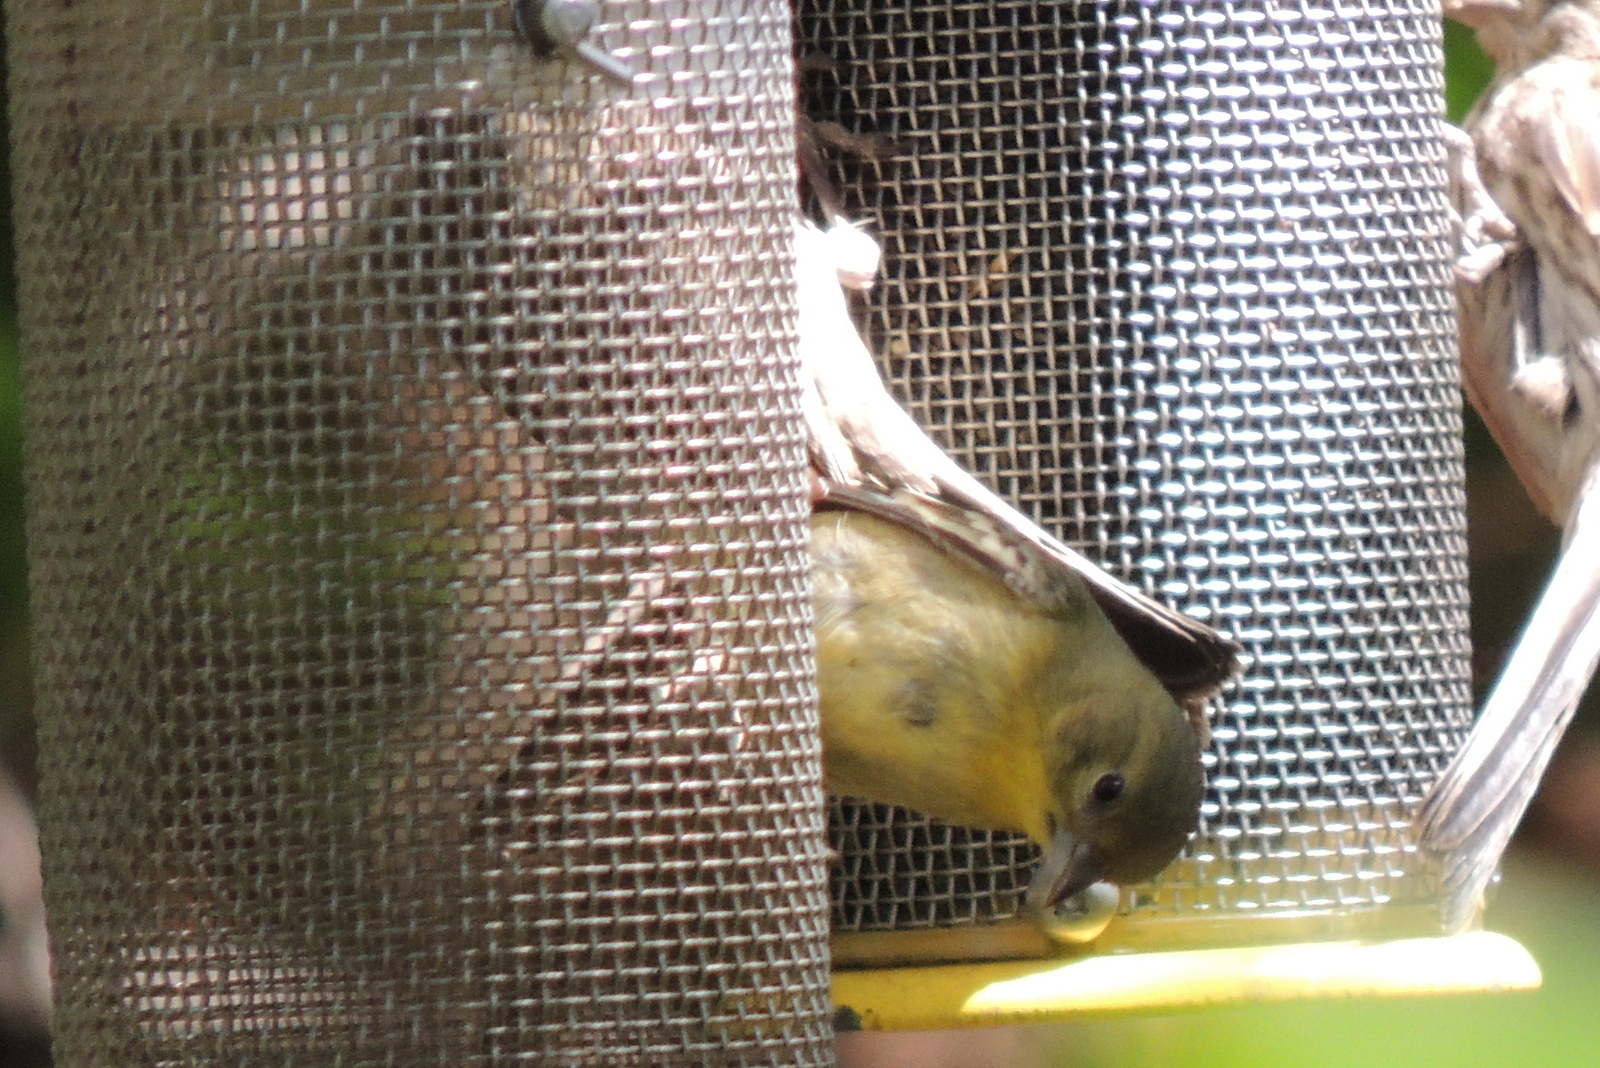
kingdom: Animalia
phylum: Chordata
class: Aves
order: Passeriformes
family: Fringillidae
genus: Spinus
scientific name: Spinus psaltria
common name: Lesser goldfinch
